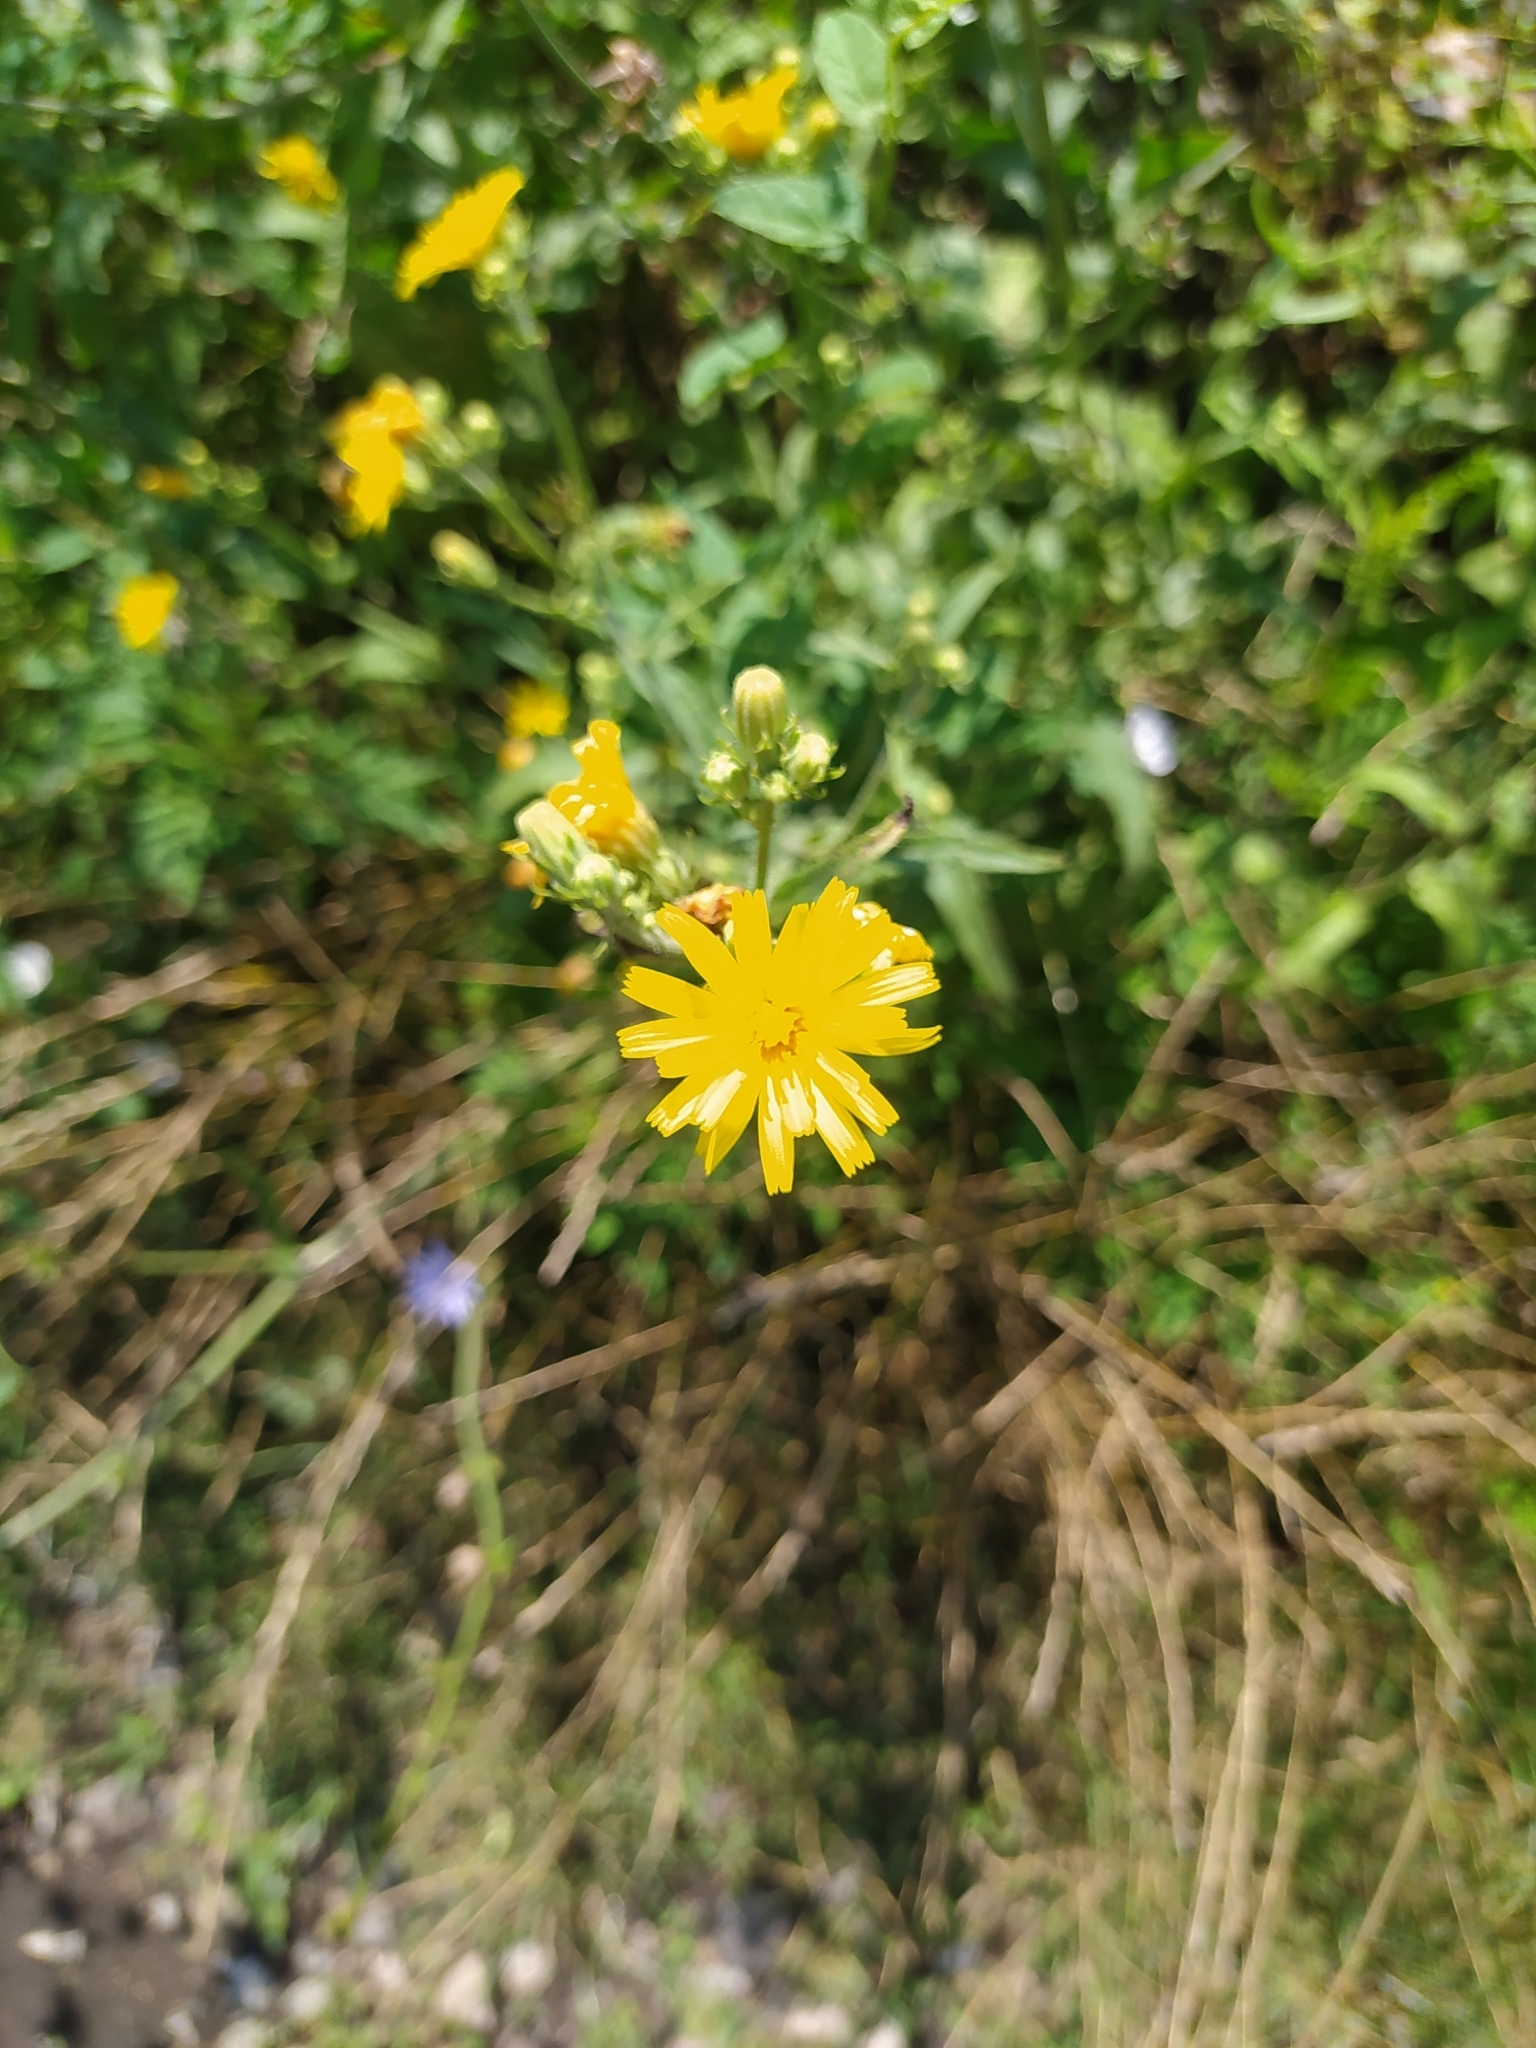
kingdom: Plantae
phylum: Tracheophyta
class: Magnoliopsida
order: Asterales
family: Asteraceae
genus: Picris
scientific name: Picris hieracioides
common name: Hawkweed oxtongue
